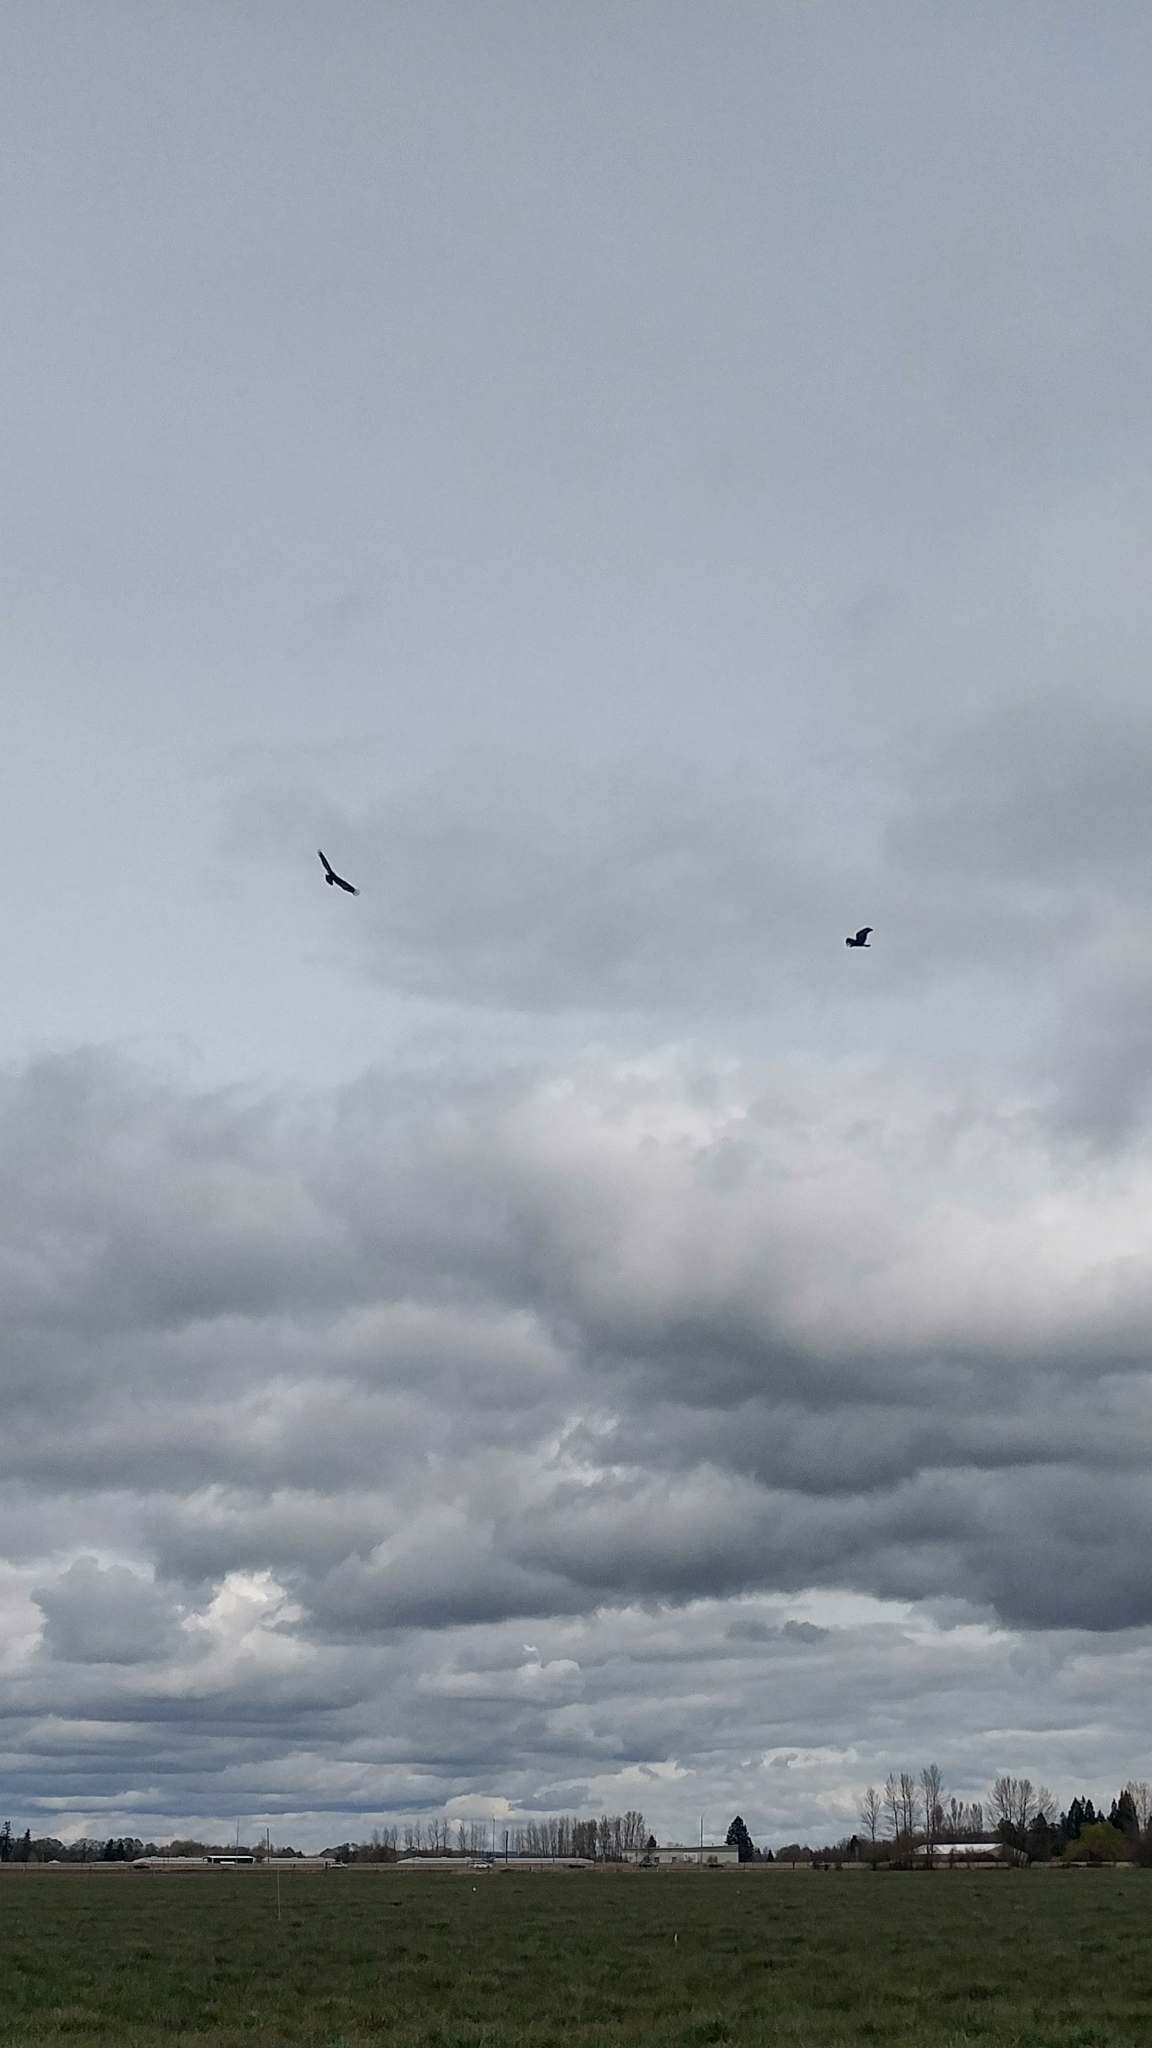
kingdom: Animalia
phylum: Chordata
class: Aves
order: Accipitriformes
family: Cathartidae
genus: Cathartes
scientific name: Cathartes aura
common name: Turkey vulture
